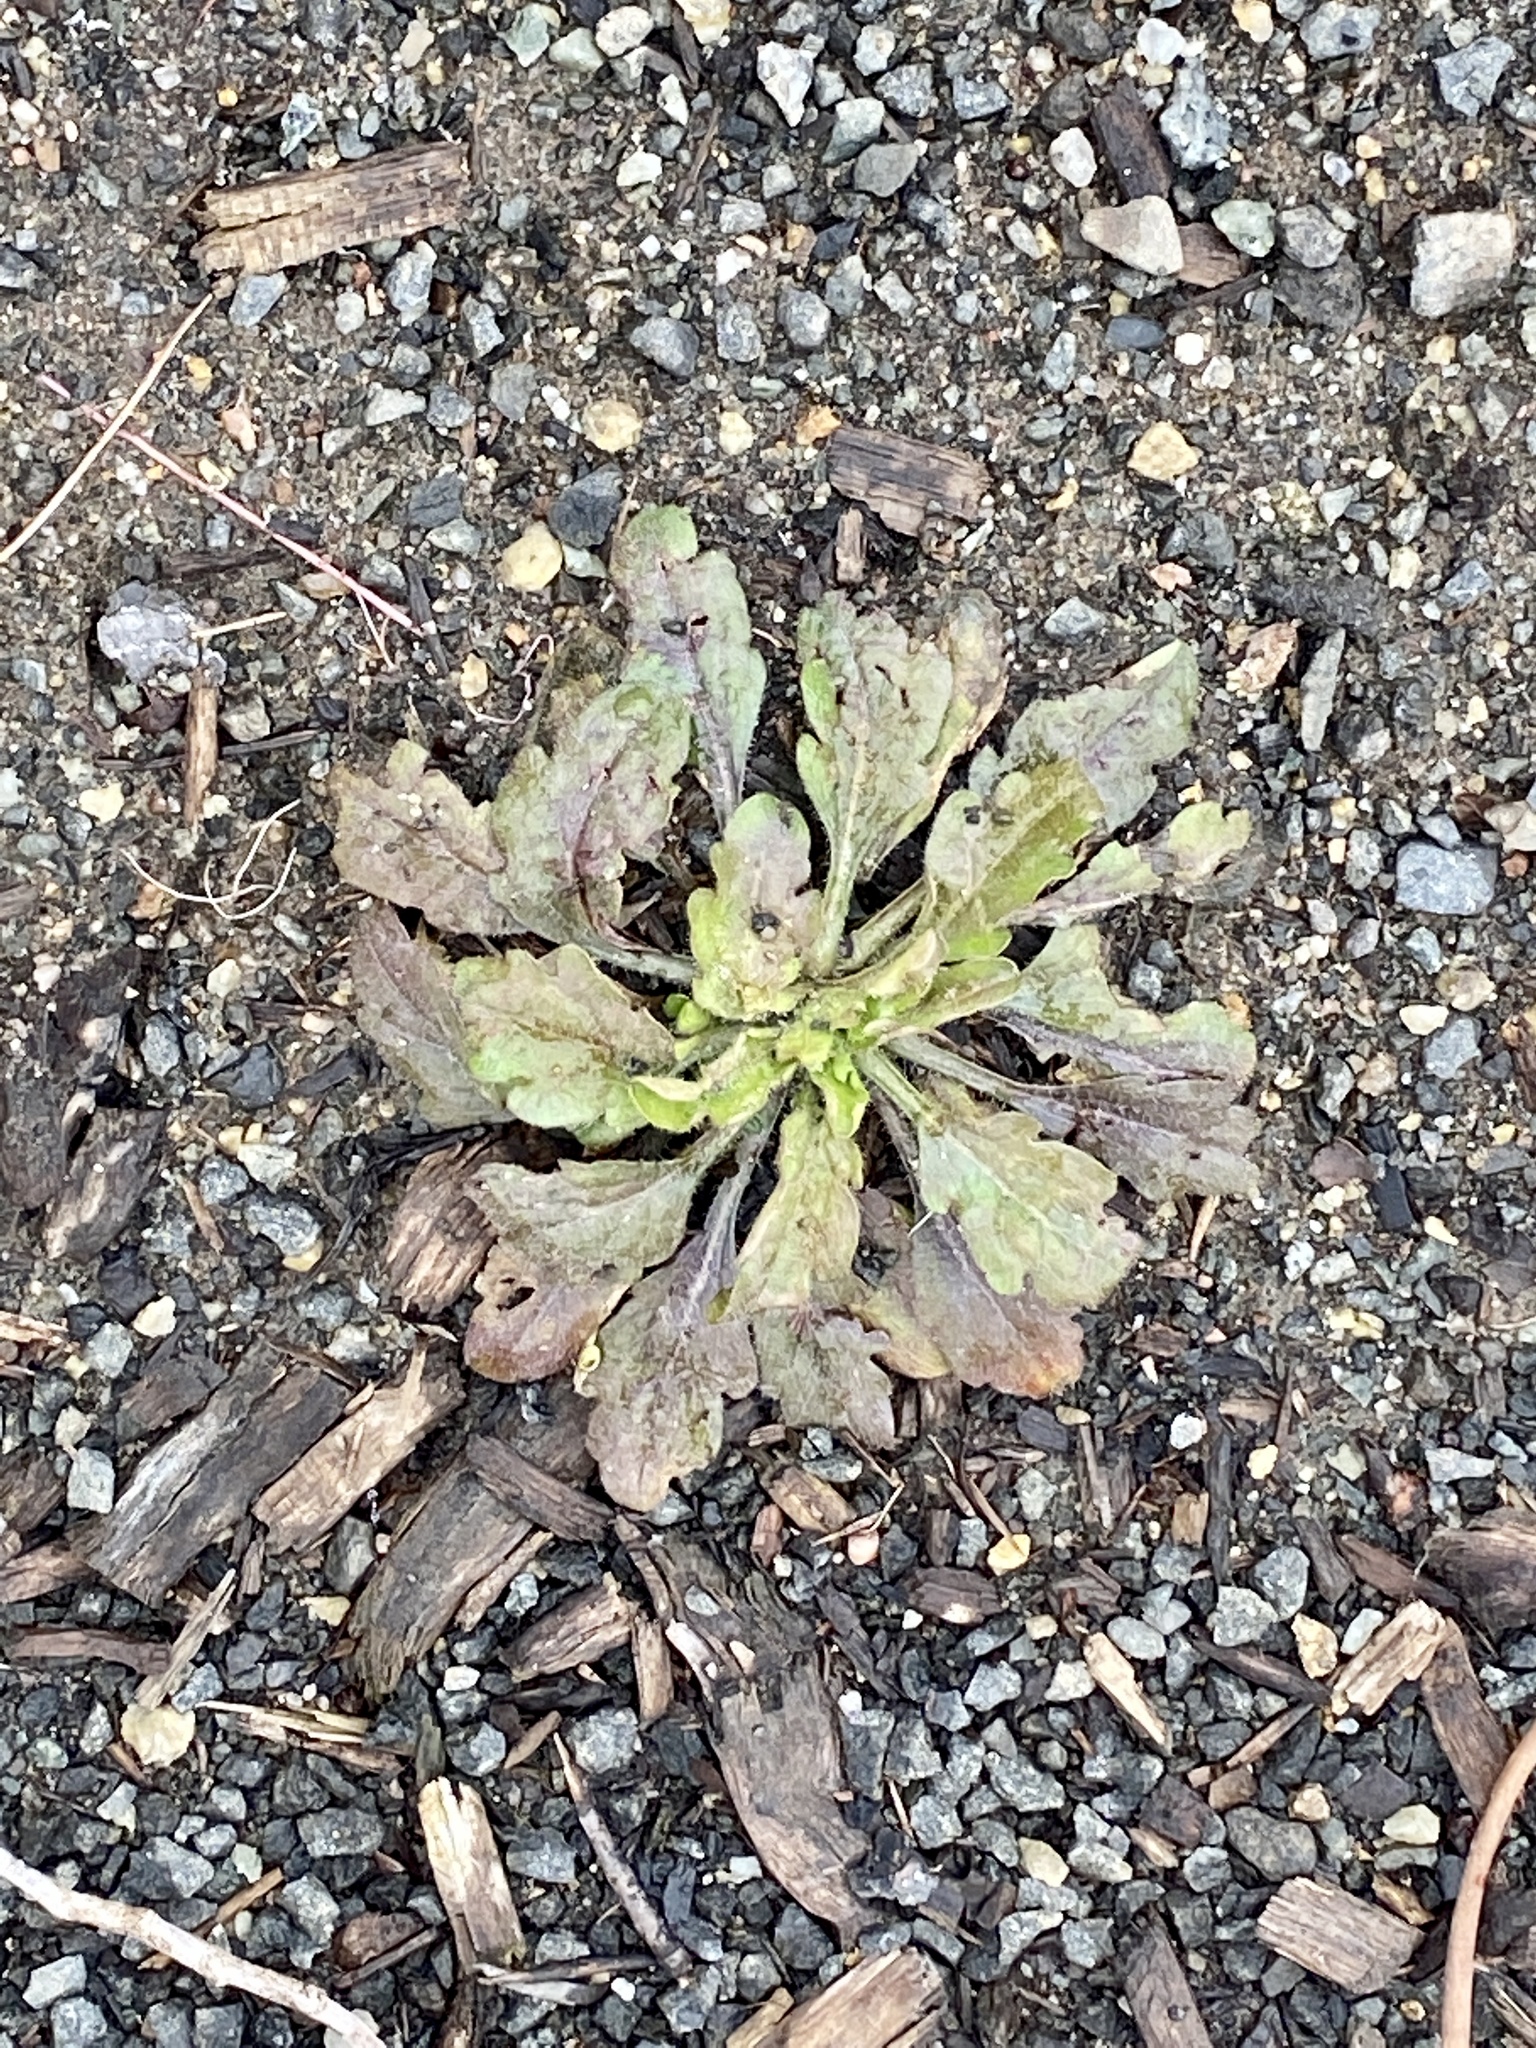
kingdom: Plantae
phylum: Tracheophyta
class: Magnoliopsida
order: Asterales
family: Asteraceae
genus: Erigeron
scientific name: Erigeron canadensis
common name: Canadian fleabane
